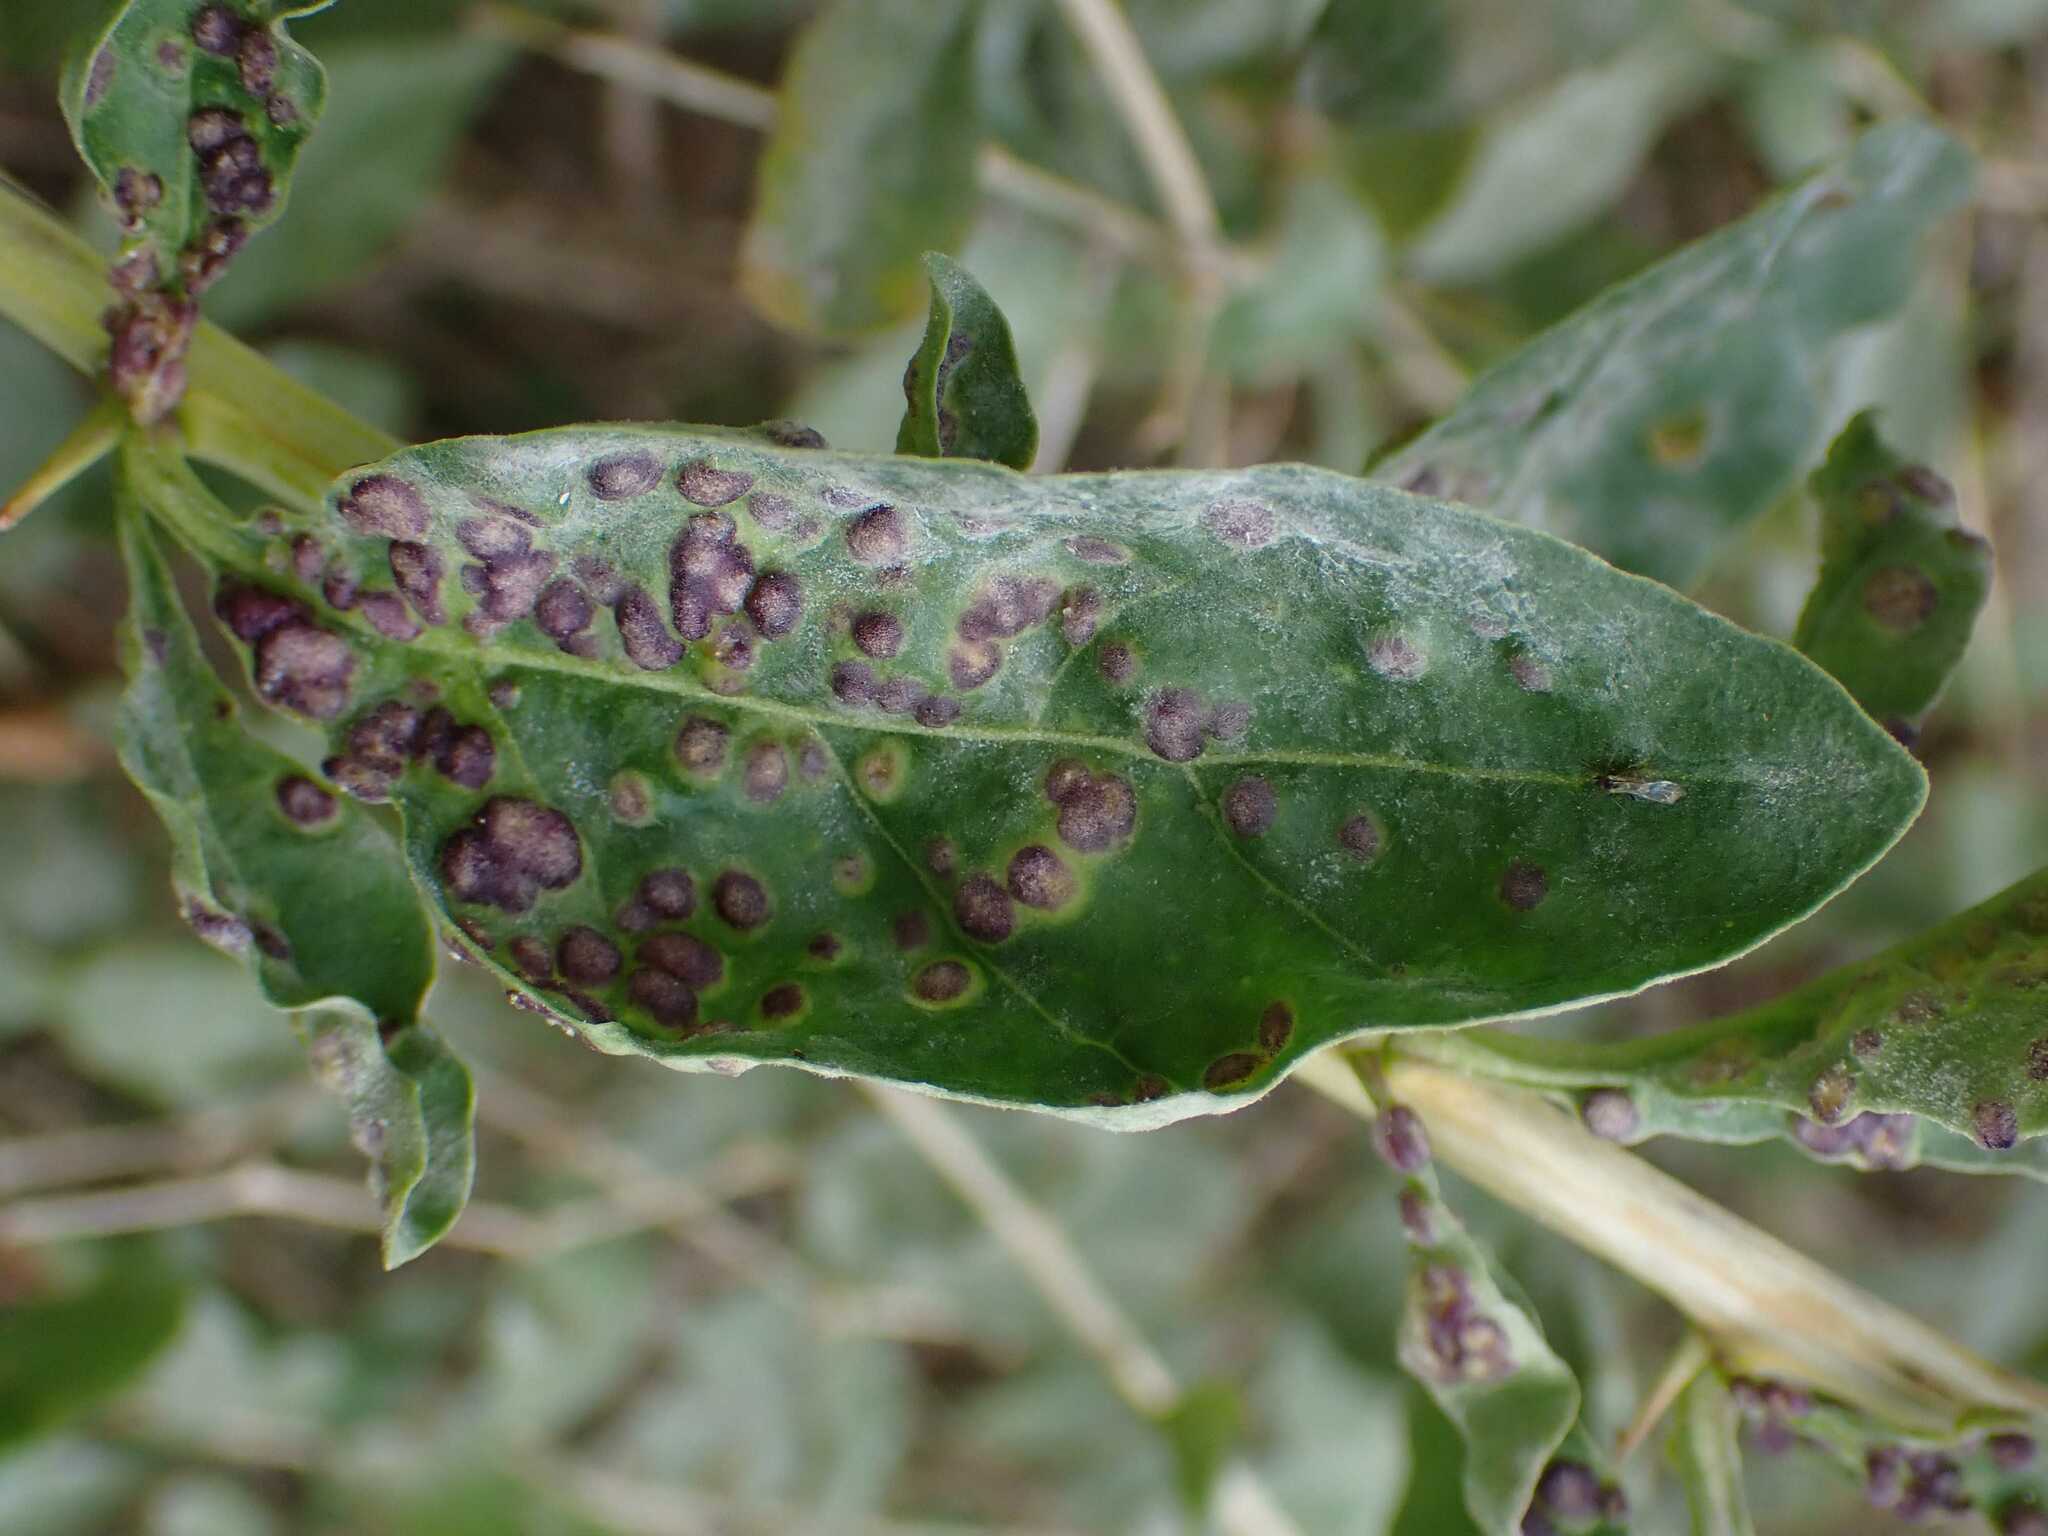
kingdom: Animalia
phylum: Arthropoda
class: Arachnida
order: Trombidiformes
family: Eriophyidae
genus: Aceria
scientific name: Aceria kuko
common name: Goji gall mite
